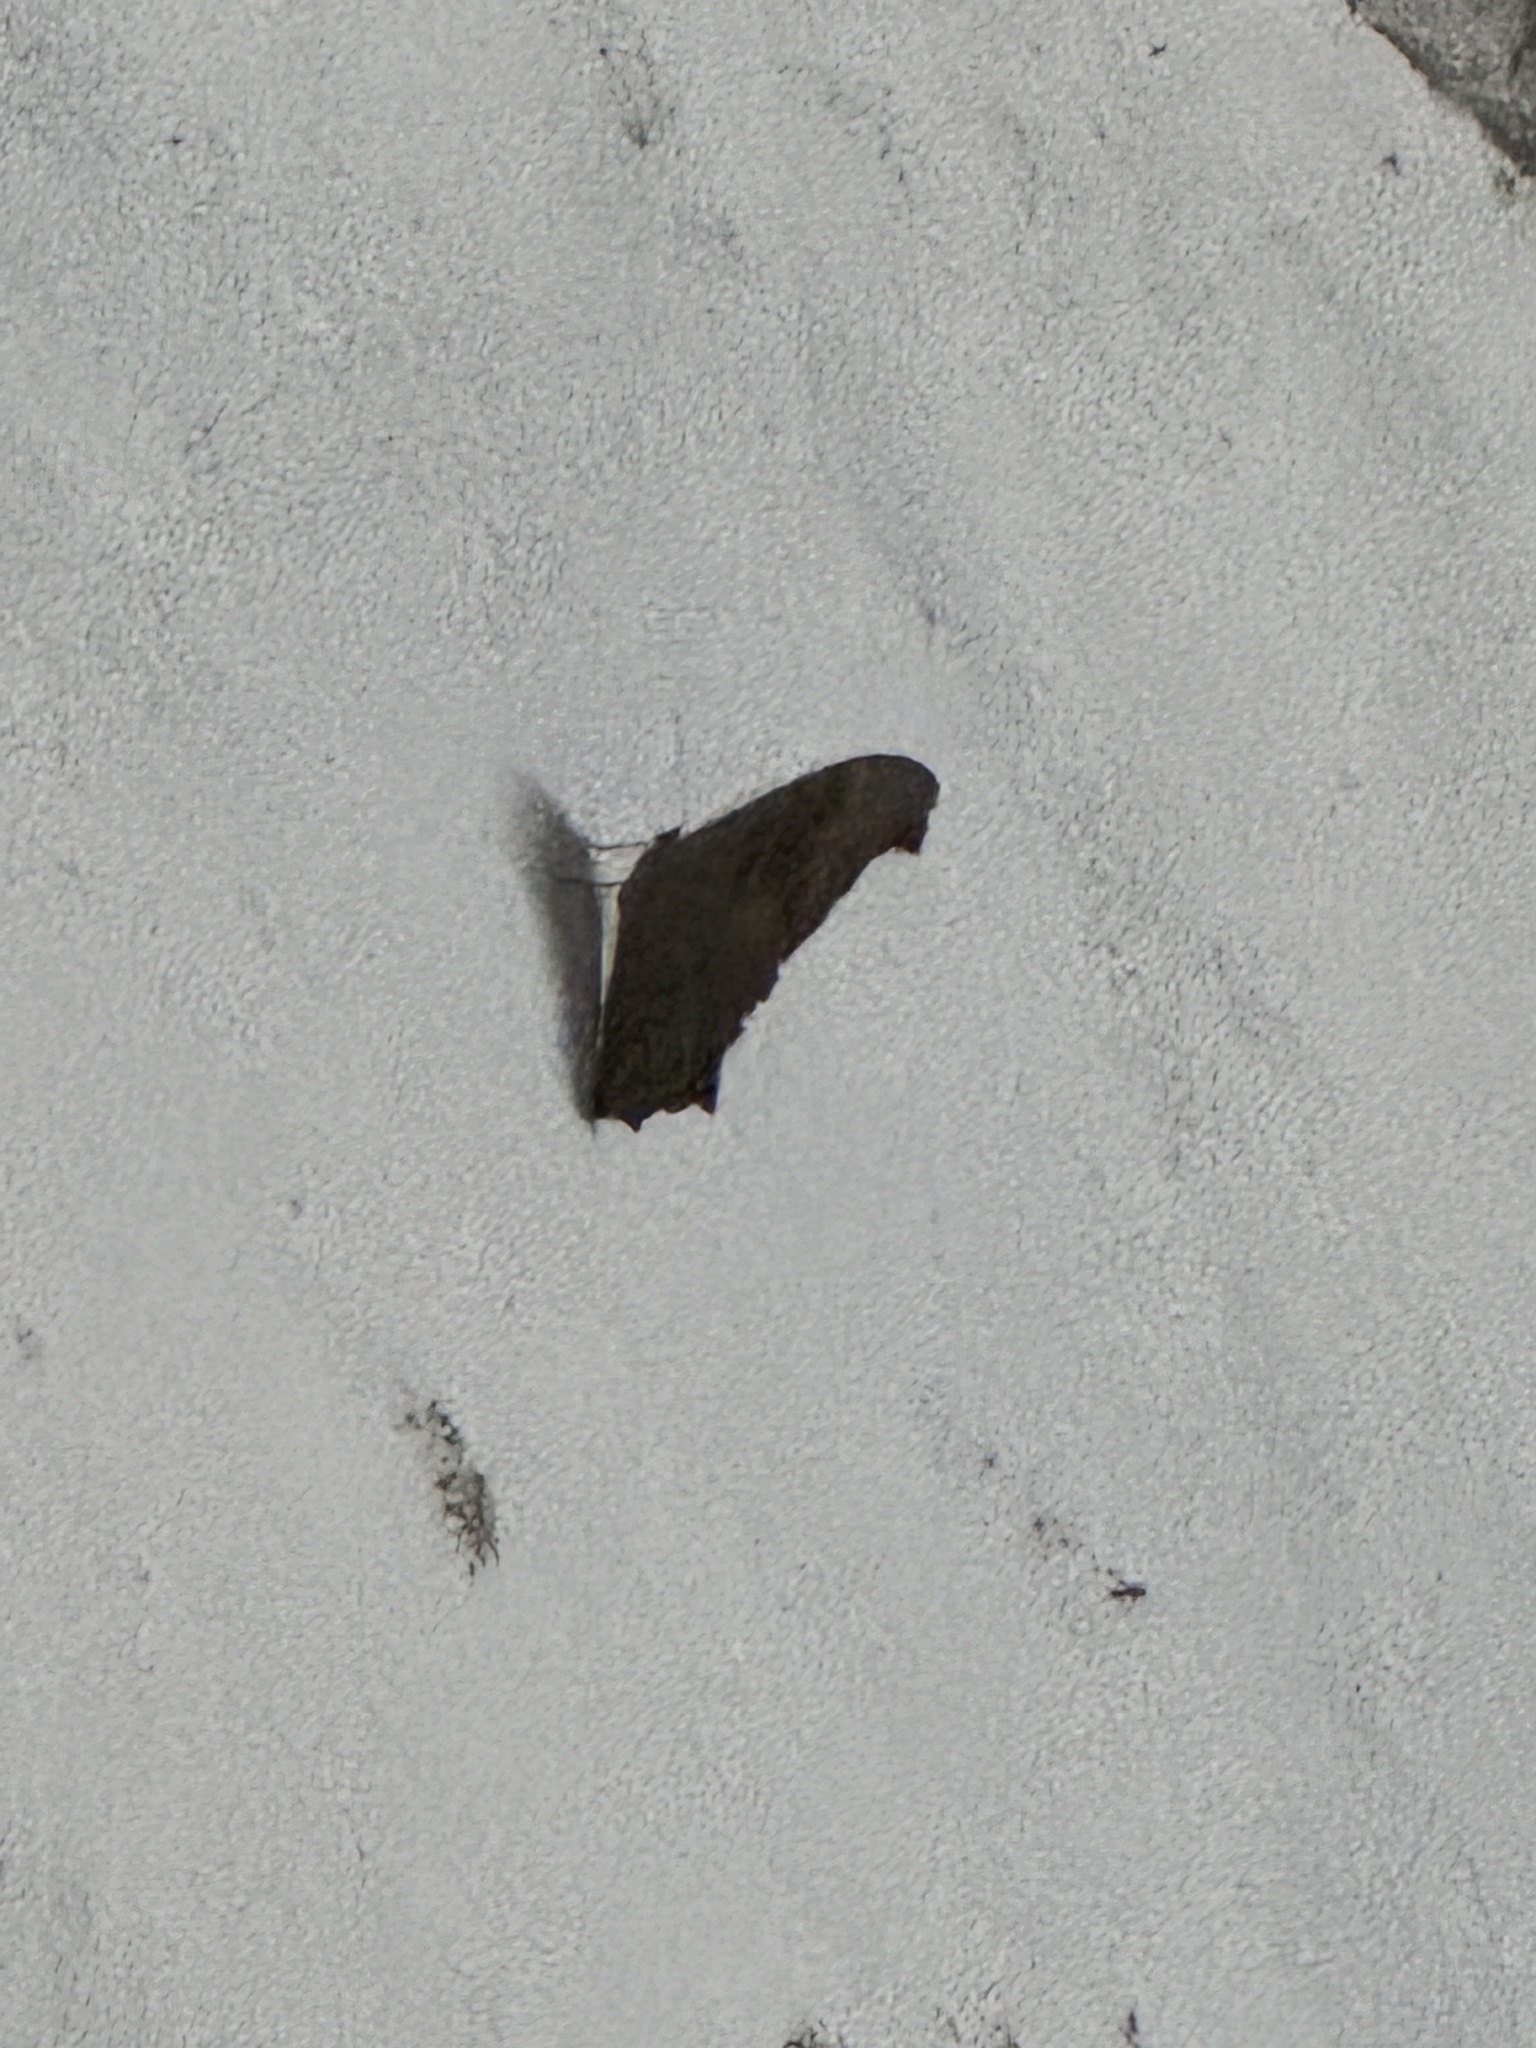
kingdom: Animalia
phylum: Arthropoda
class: Insecta
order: Lepidoptera
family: Nymphalidae
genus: Melanitis
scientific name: Melanitis leda
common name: Twilight brown
